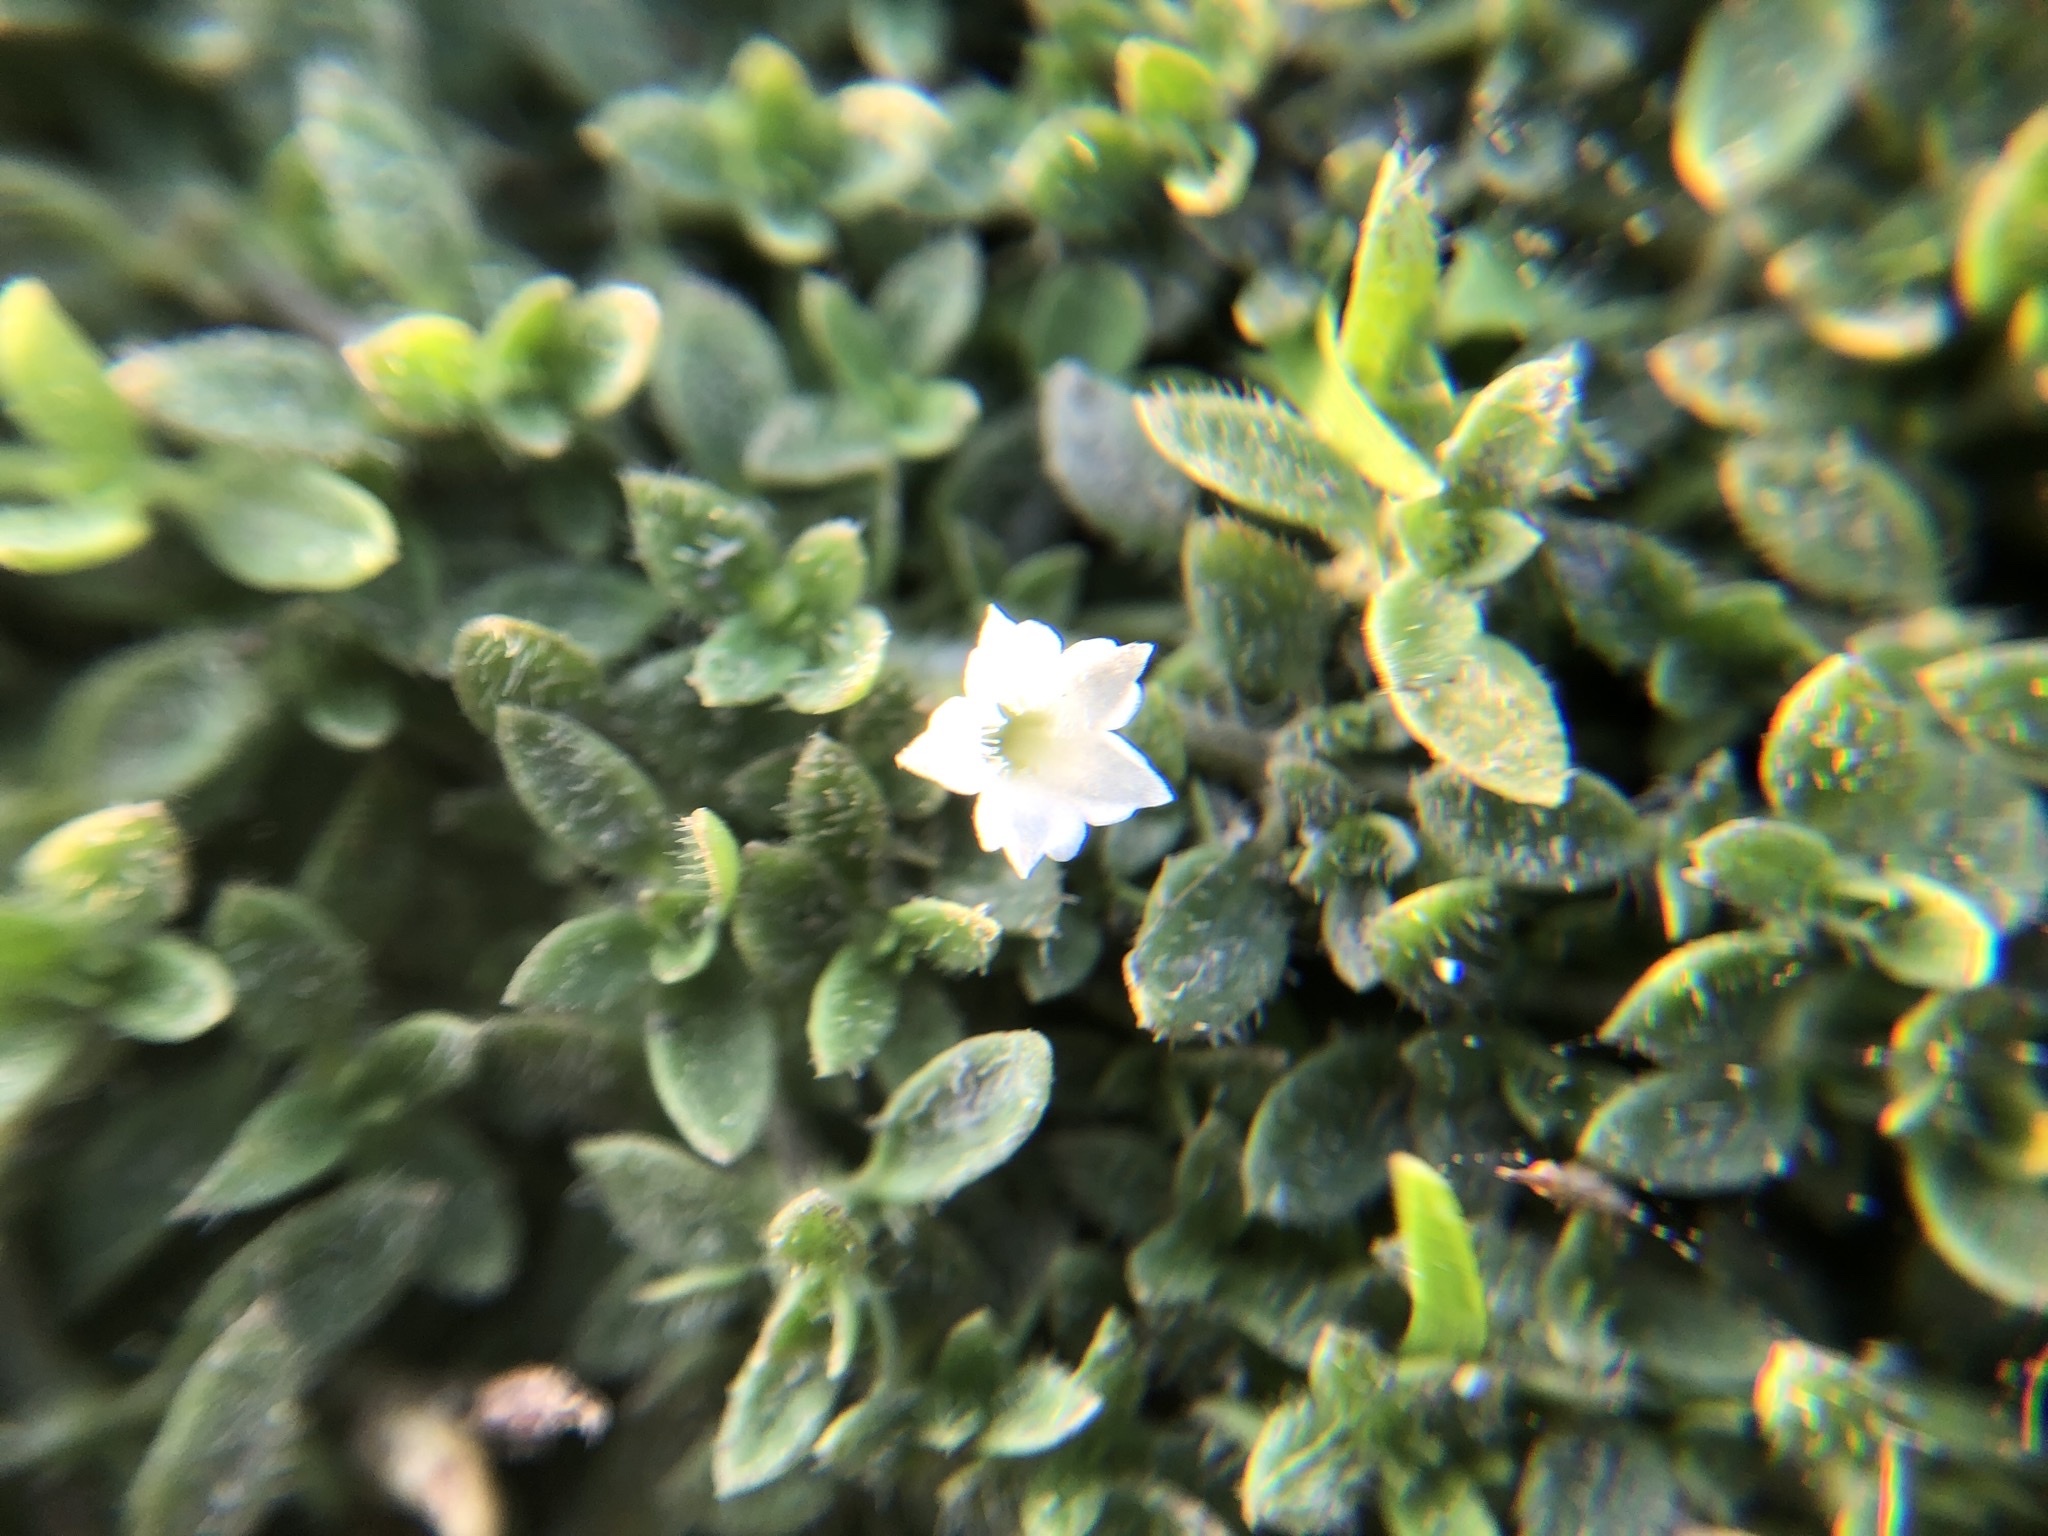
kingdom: Plantae
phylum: Tracheophyta
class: Magnoliopsida
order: Gentianales
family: Rubiaceae
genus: Dentella
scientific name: Dentella repens
